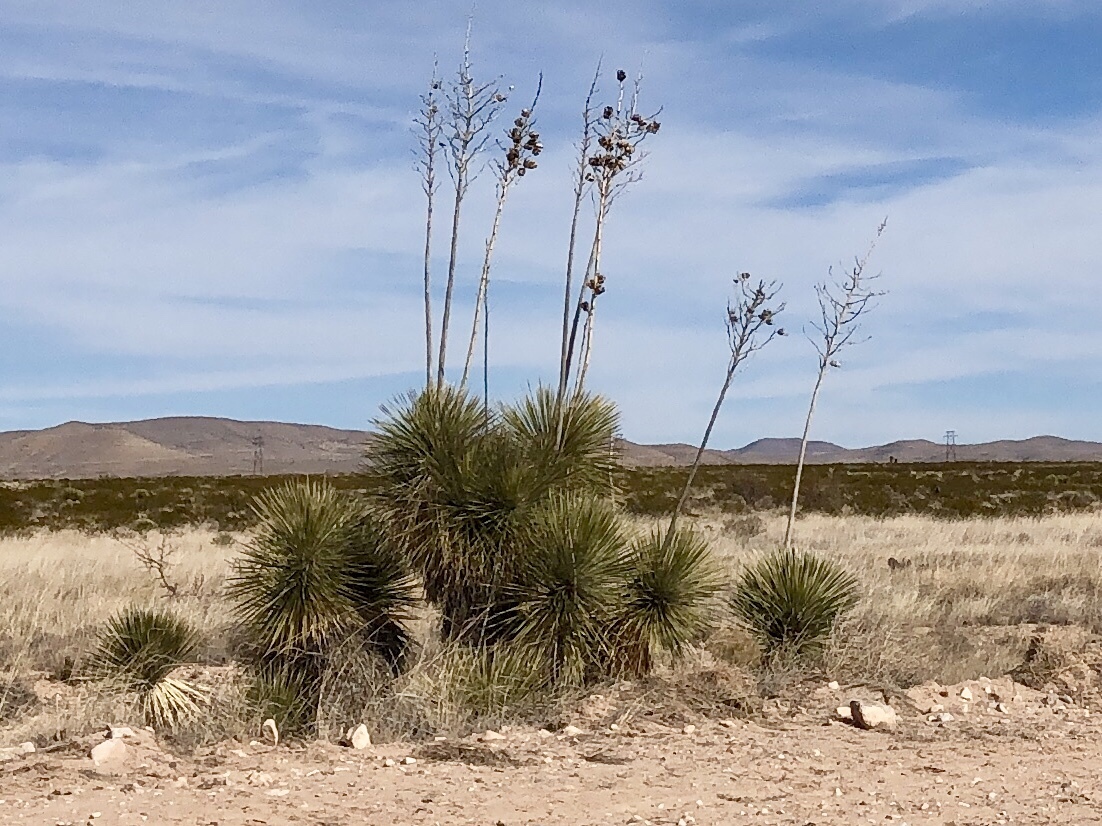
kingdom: Plantae
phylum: Tracheophyta
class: Liliopsida
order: Asparagales
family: Asparagaceae
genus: Yucca
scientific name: Yucca elata
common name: Palmella
